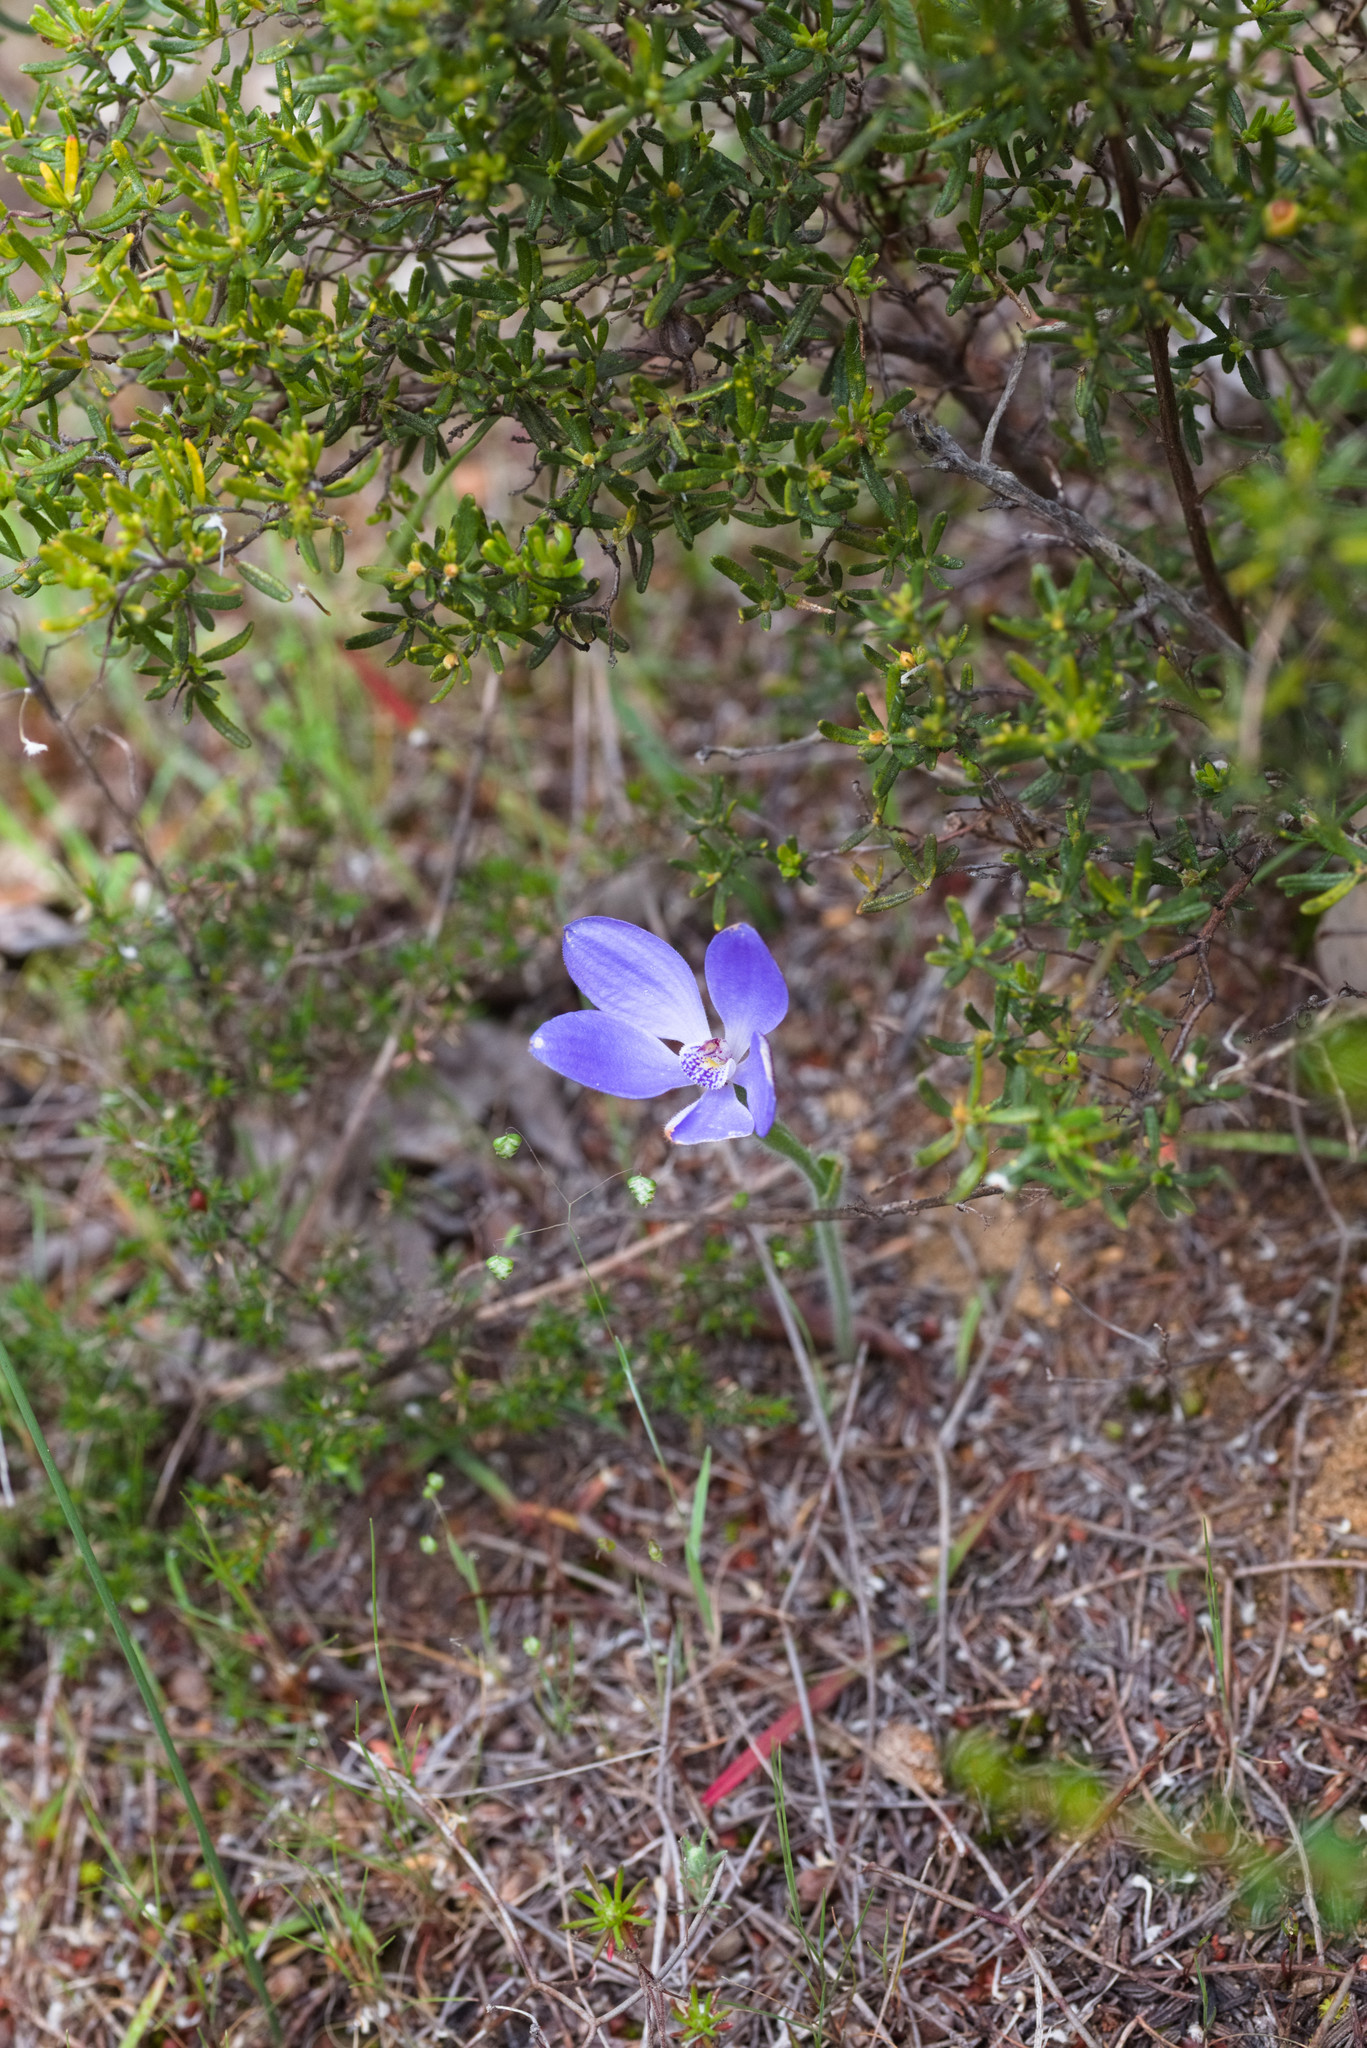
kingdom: Plantae
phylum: Tracheophyta
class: Liliopsida
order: Asparagales
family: Orchidaceae
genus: Caladenia
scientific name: Caladenia gemmata
